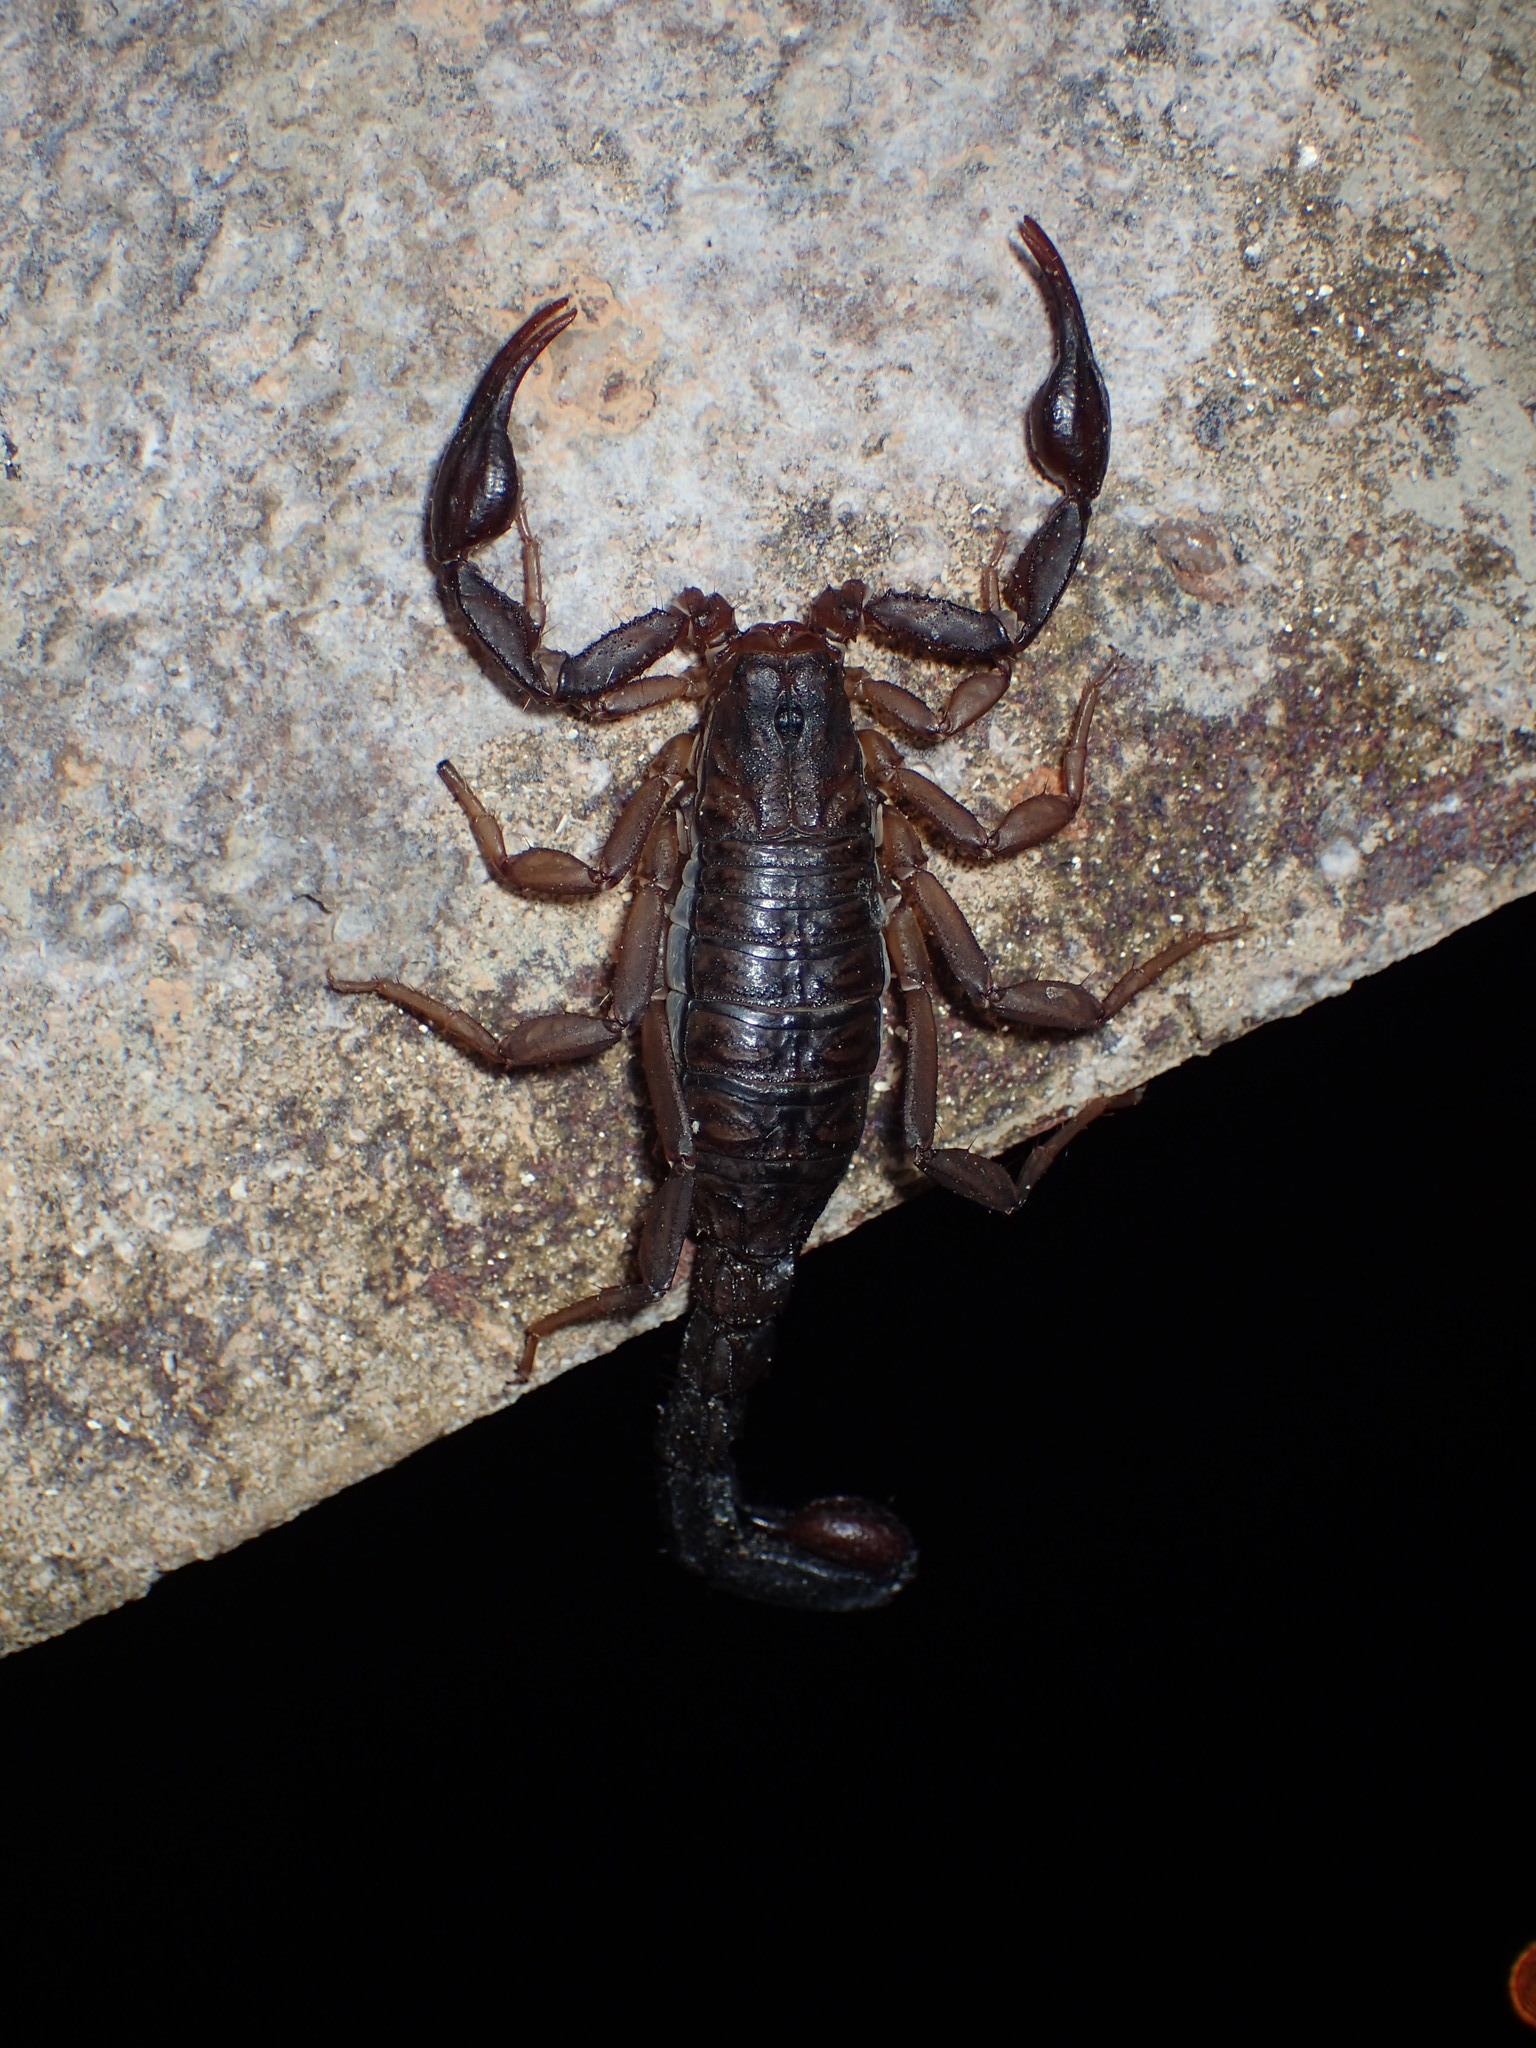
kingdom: Animalia
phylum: Arthropoda
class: Arachnida
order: Scorpiones
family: Vaejovidae
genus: Vaejovis
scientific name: Vaejovis carolinianus
